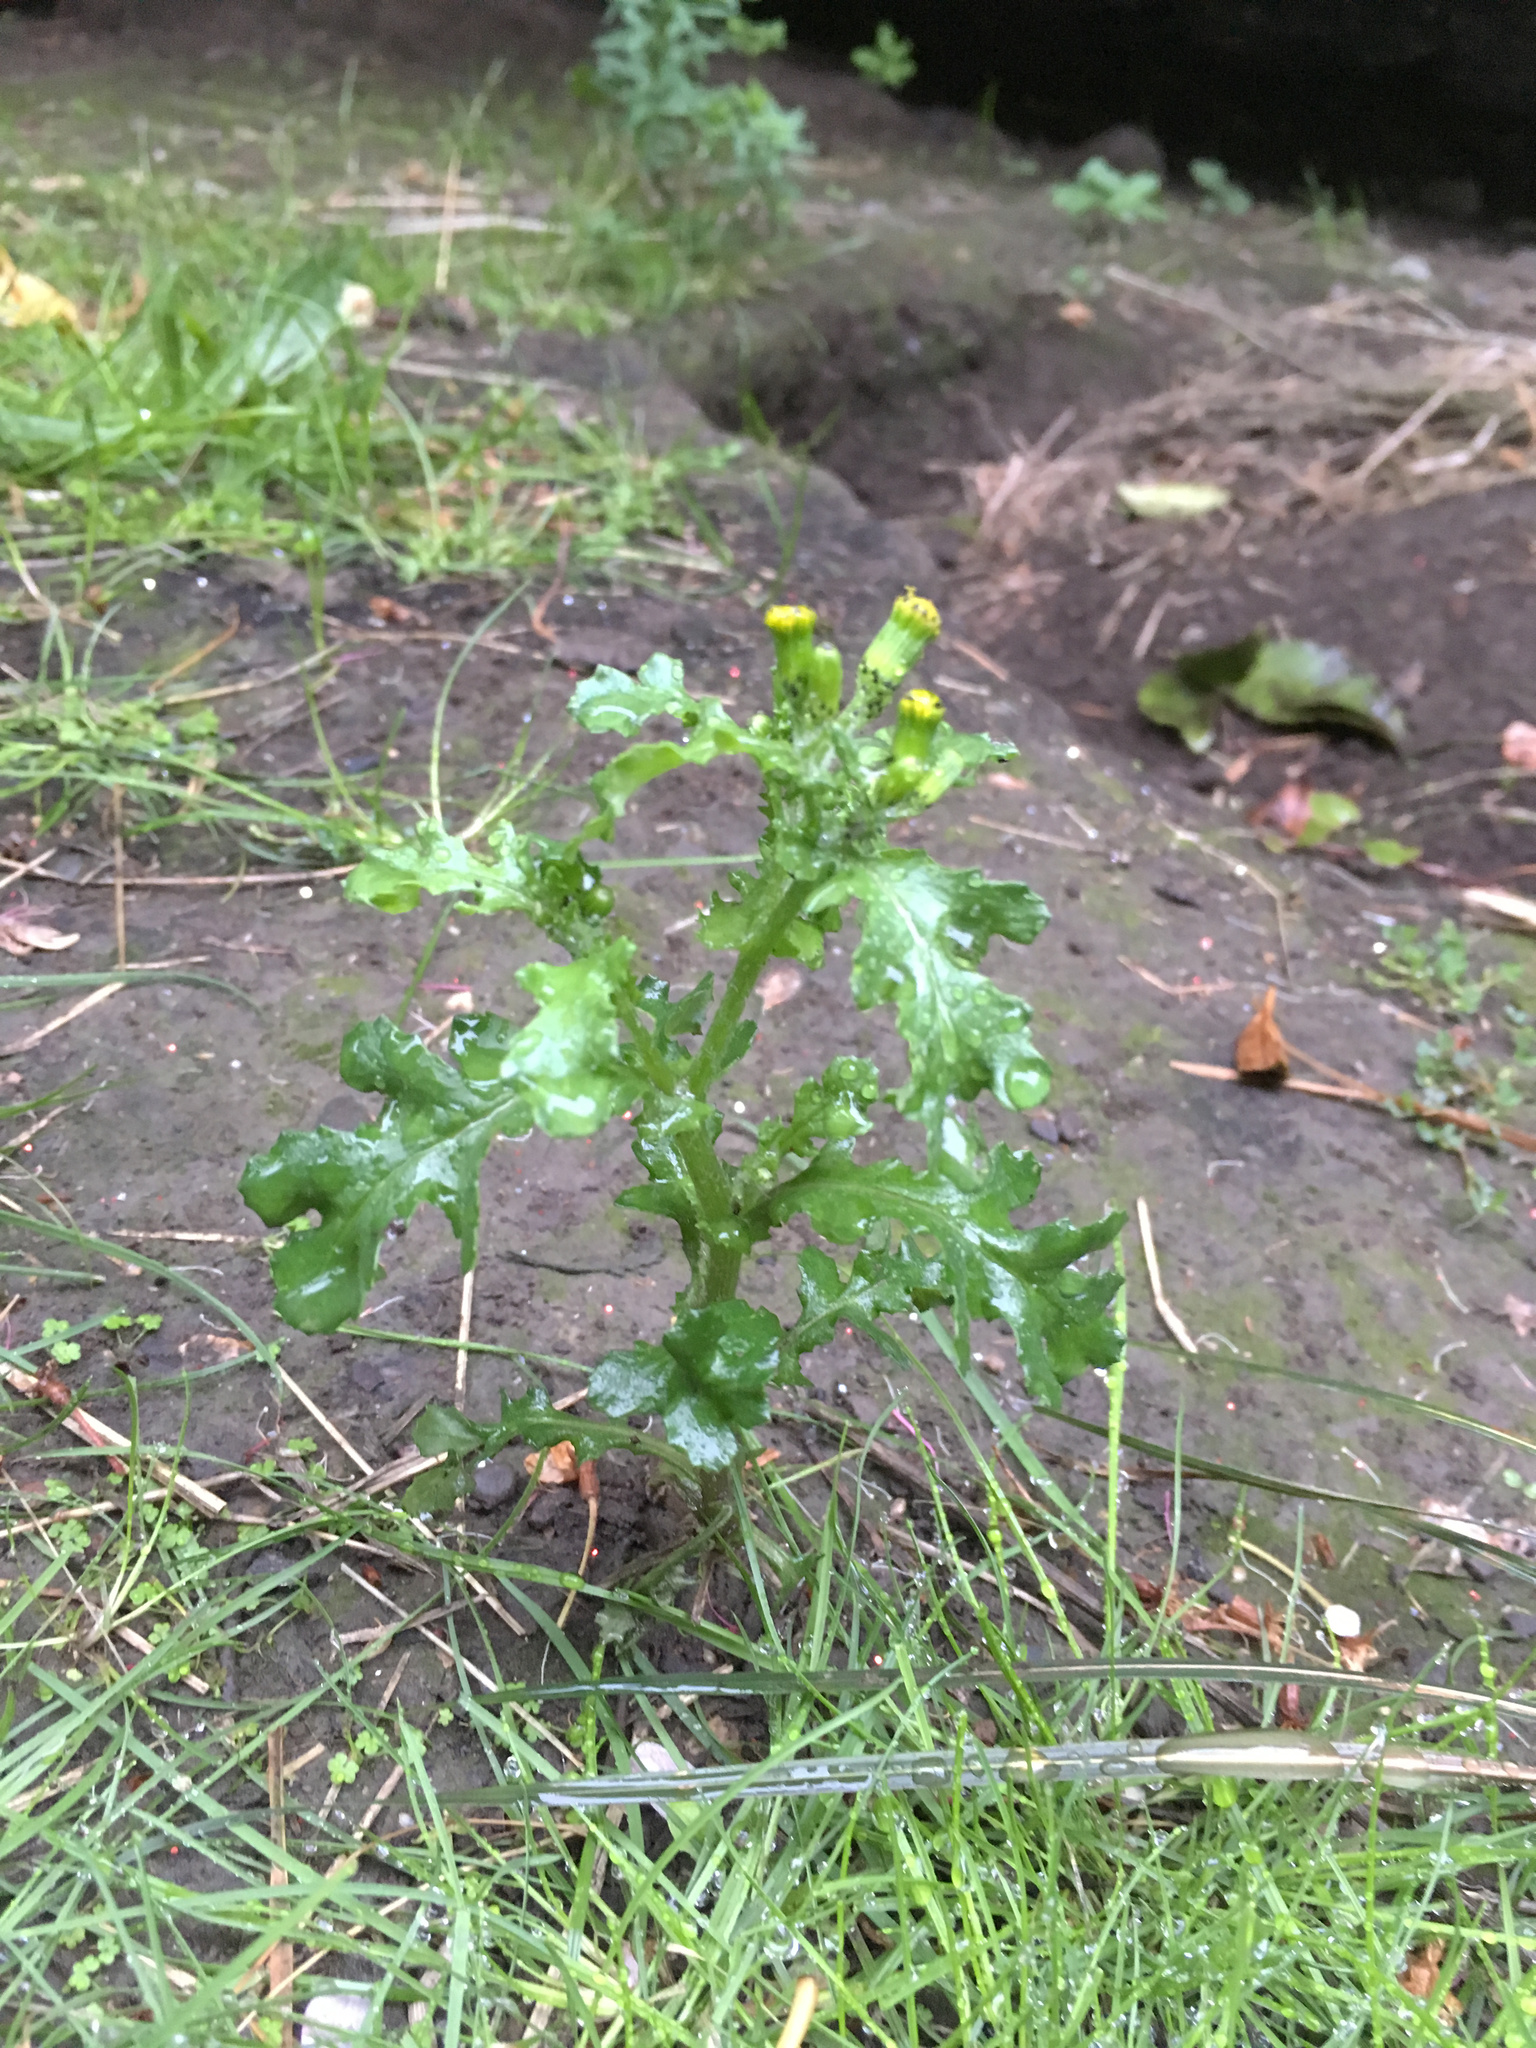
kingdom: Plantae
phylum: Tracheophyta
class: Magnoliopsida
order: Asterales
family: Asteraceae
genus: Senecio
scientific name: Senecio vulgaris
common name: Old-man-in-the-spring
